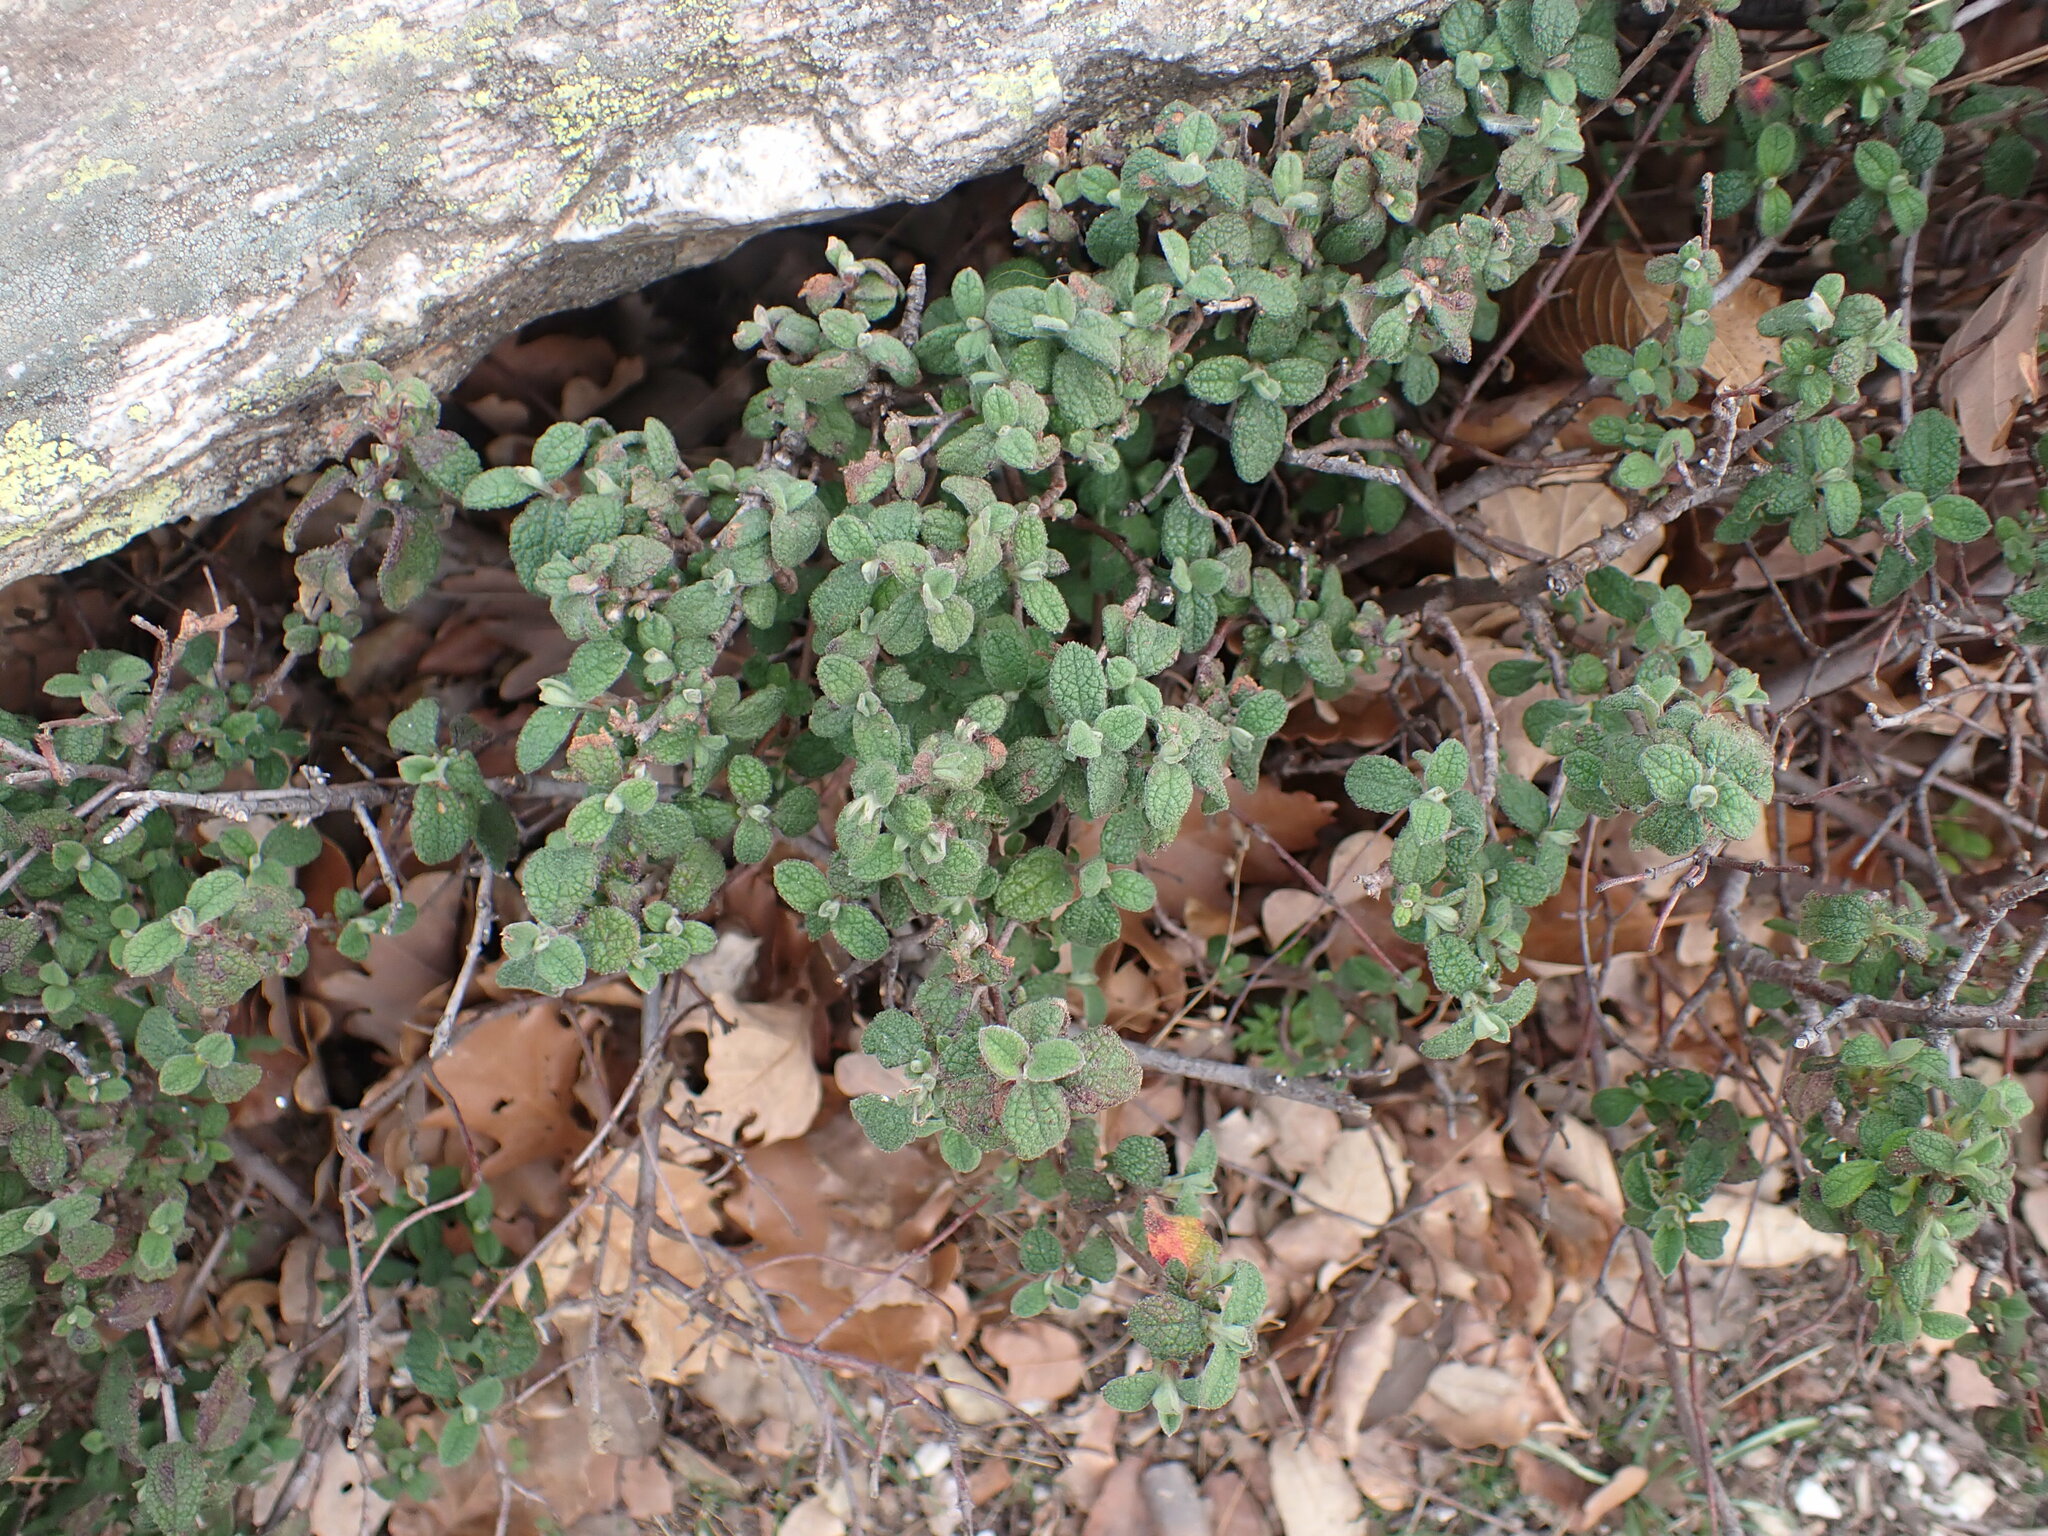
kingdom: Plantae
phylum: Tracheophyta
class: Magnoliopsida
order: Malvales
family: Cistaceae
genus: Cistus
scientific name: Cistus salviifolius
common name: Salvia cistus
